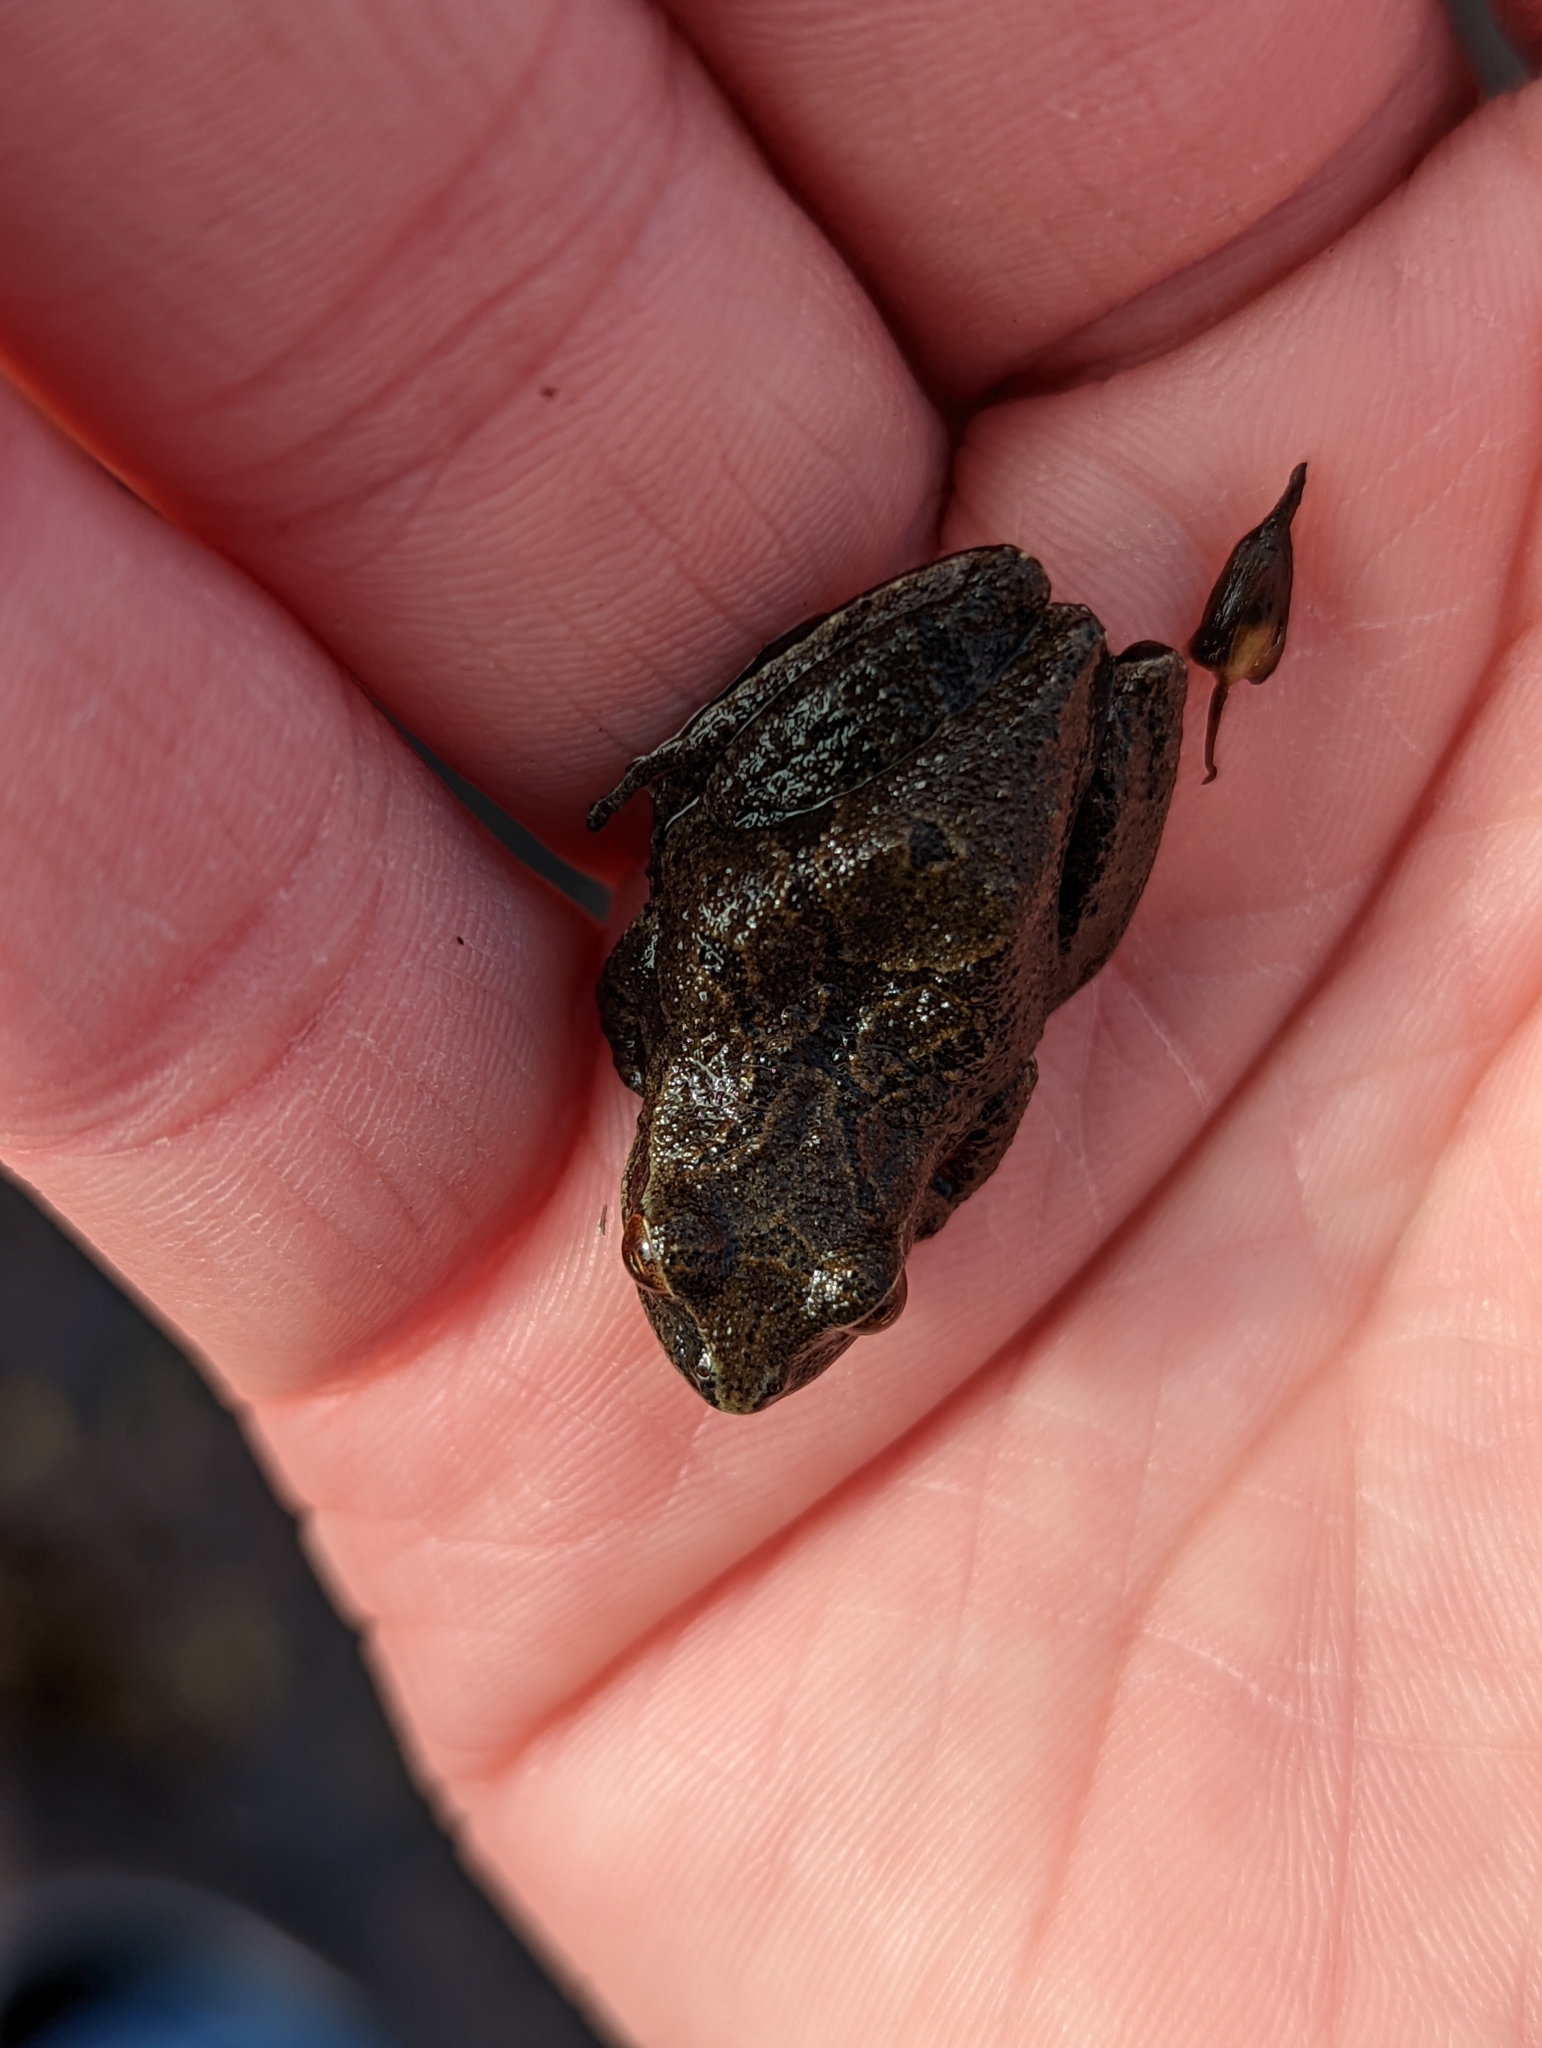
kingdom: Animalia
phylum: Chordata
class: Amphibia
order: Anura
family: Hylidae
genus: Pseudacris
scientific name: Pseudacris crucifer
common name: Spring peeper
